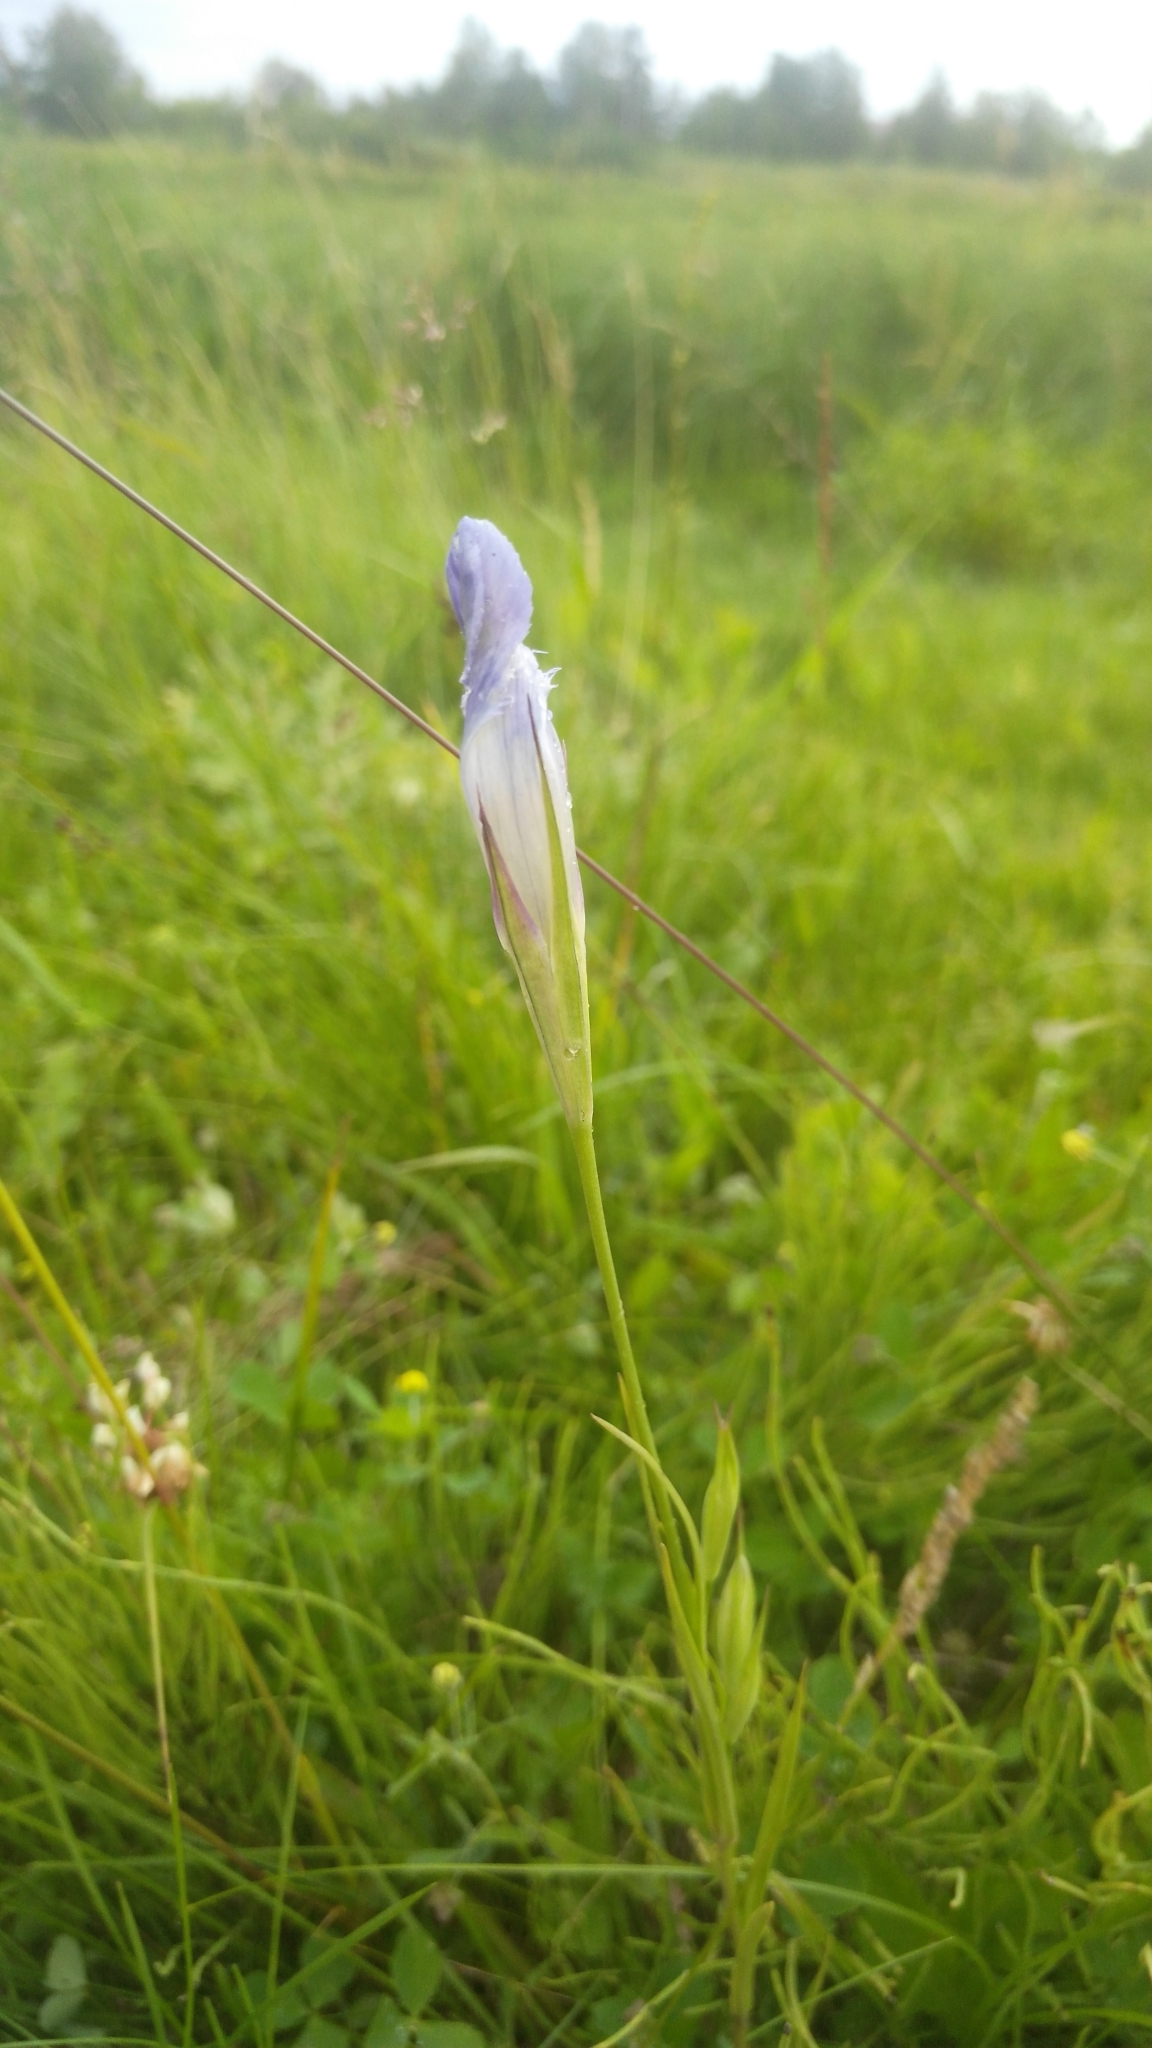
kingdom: Plantae
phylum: Tracheophyta
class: Magnoliopsida
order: Gentianales
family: Gentianaceae
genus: Gentianopsis
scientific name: Gentianopsis barbata
